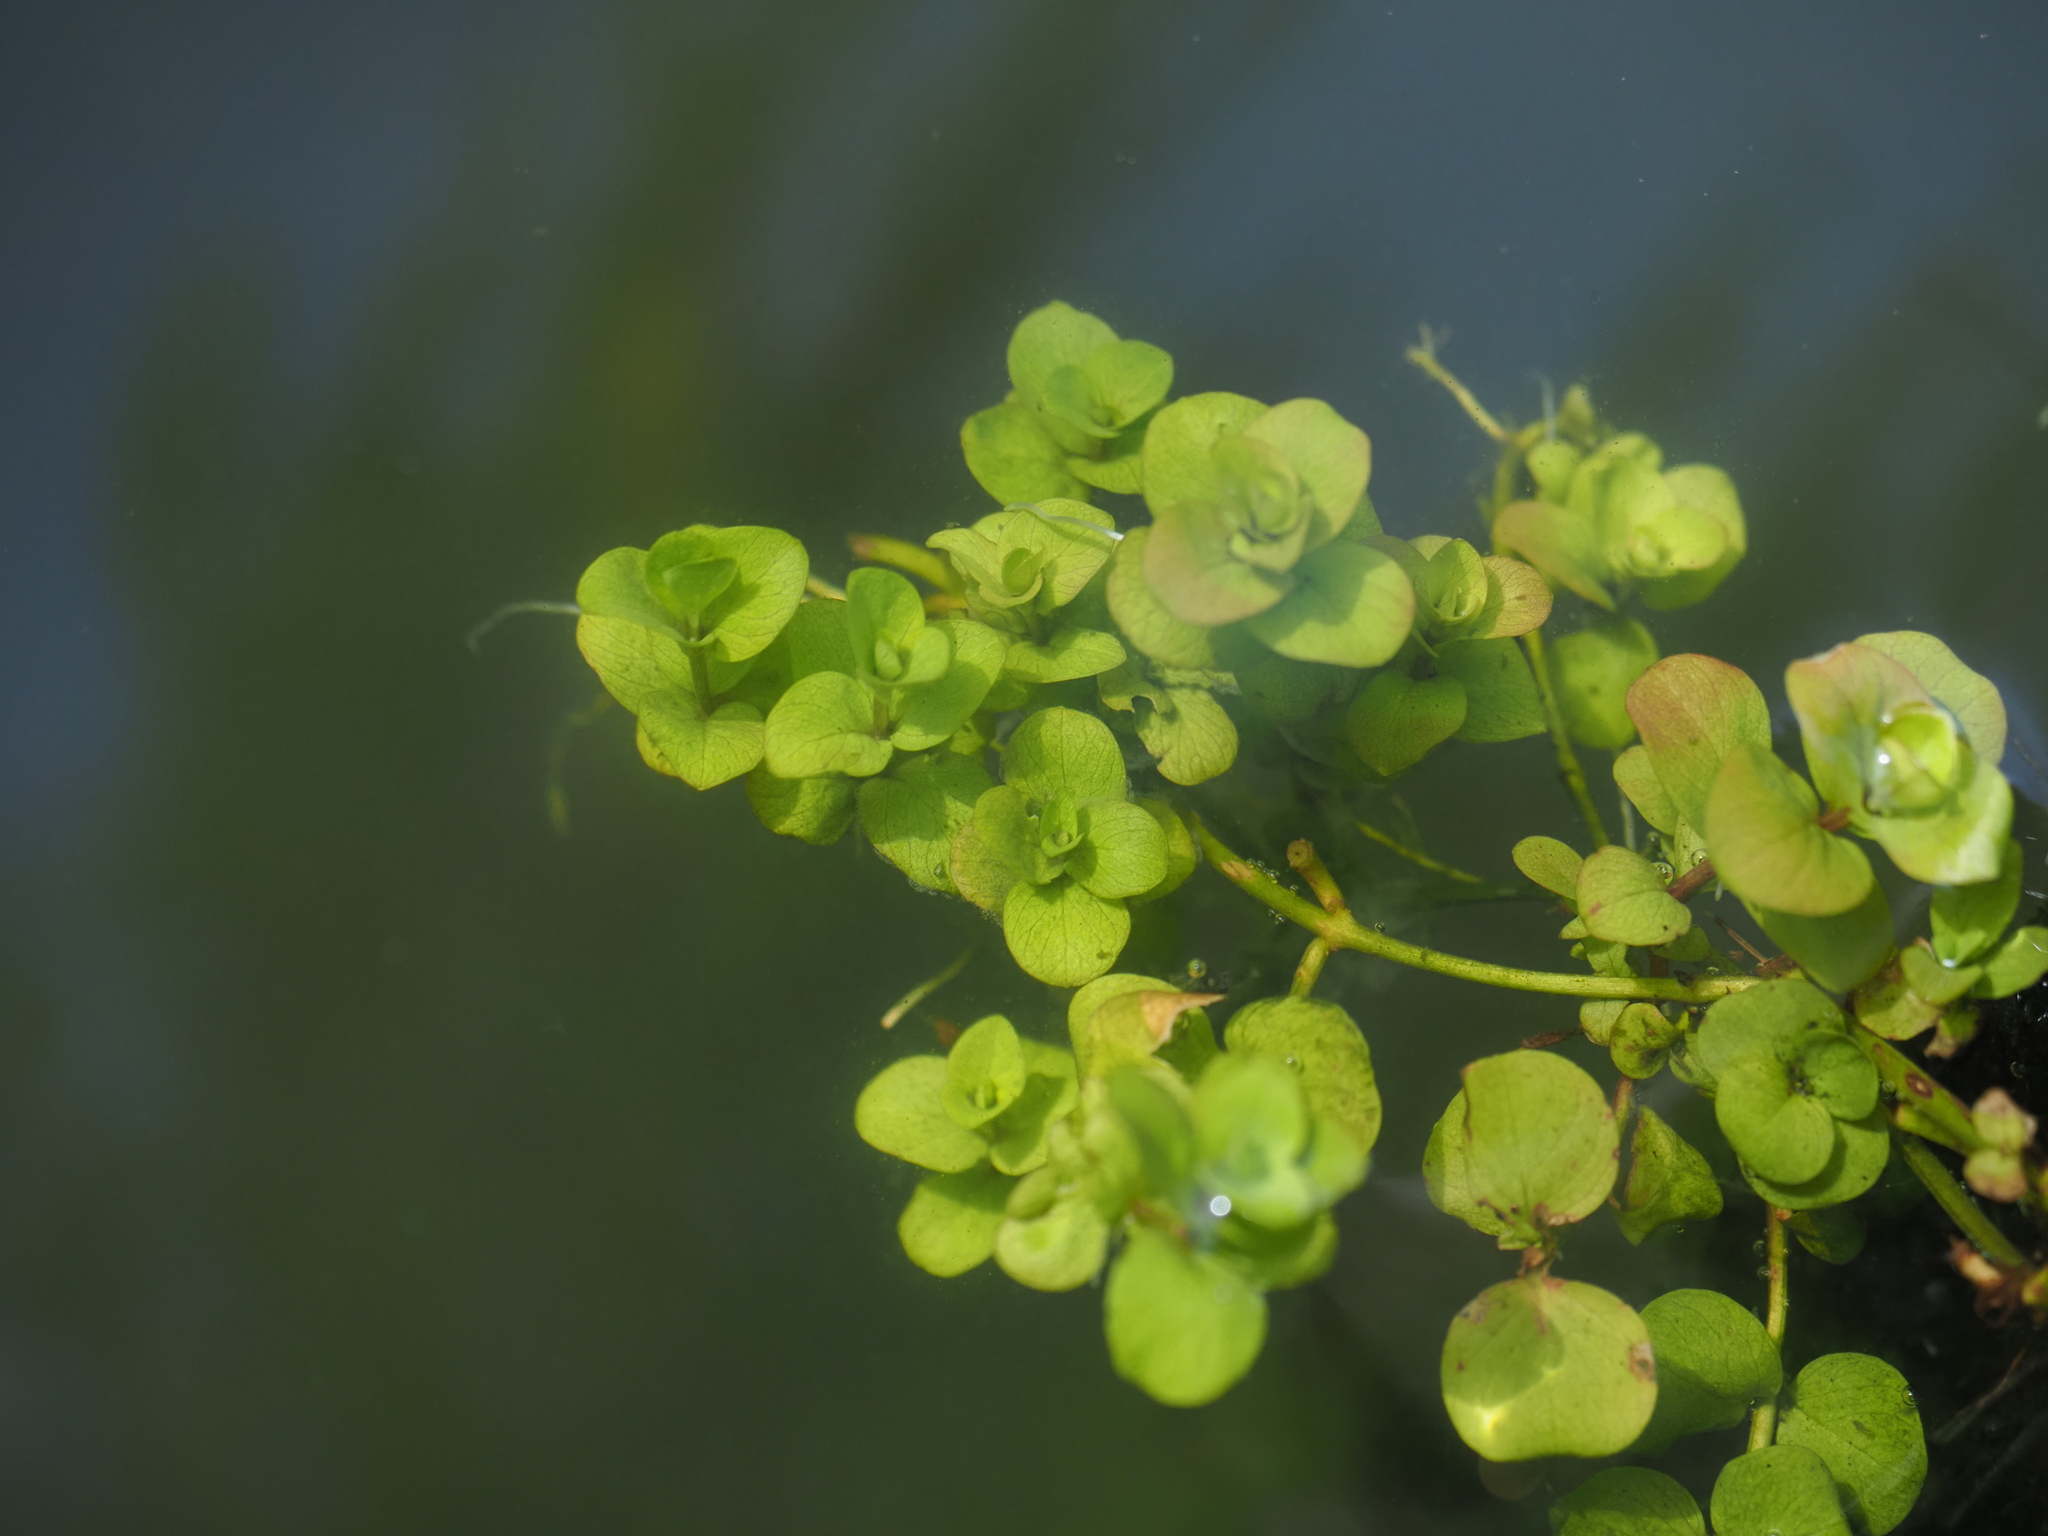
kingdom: Plantae
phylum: Tracheophyta
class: Magnoliopsida
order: Ericales
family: Primulaceae
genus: Lysimachia
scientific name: Lysimachia nummularia
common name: Moneywort
